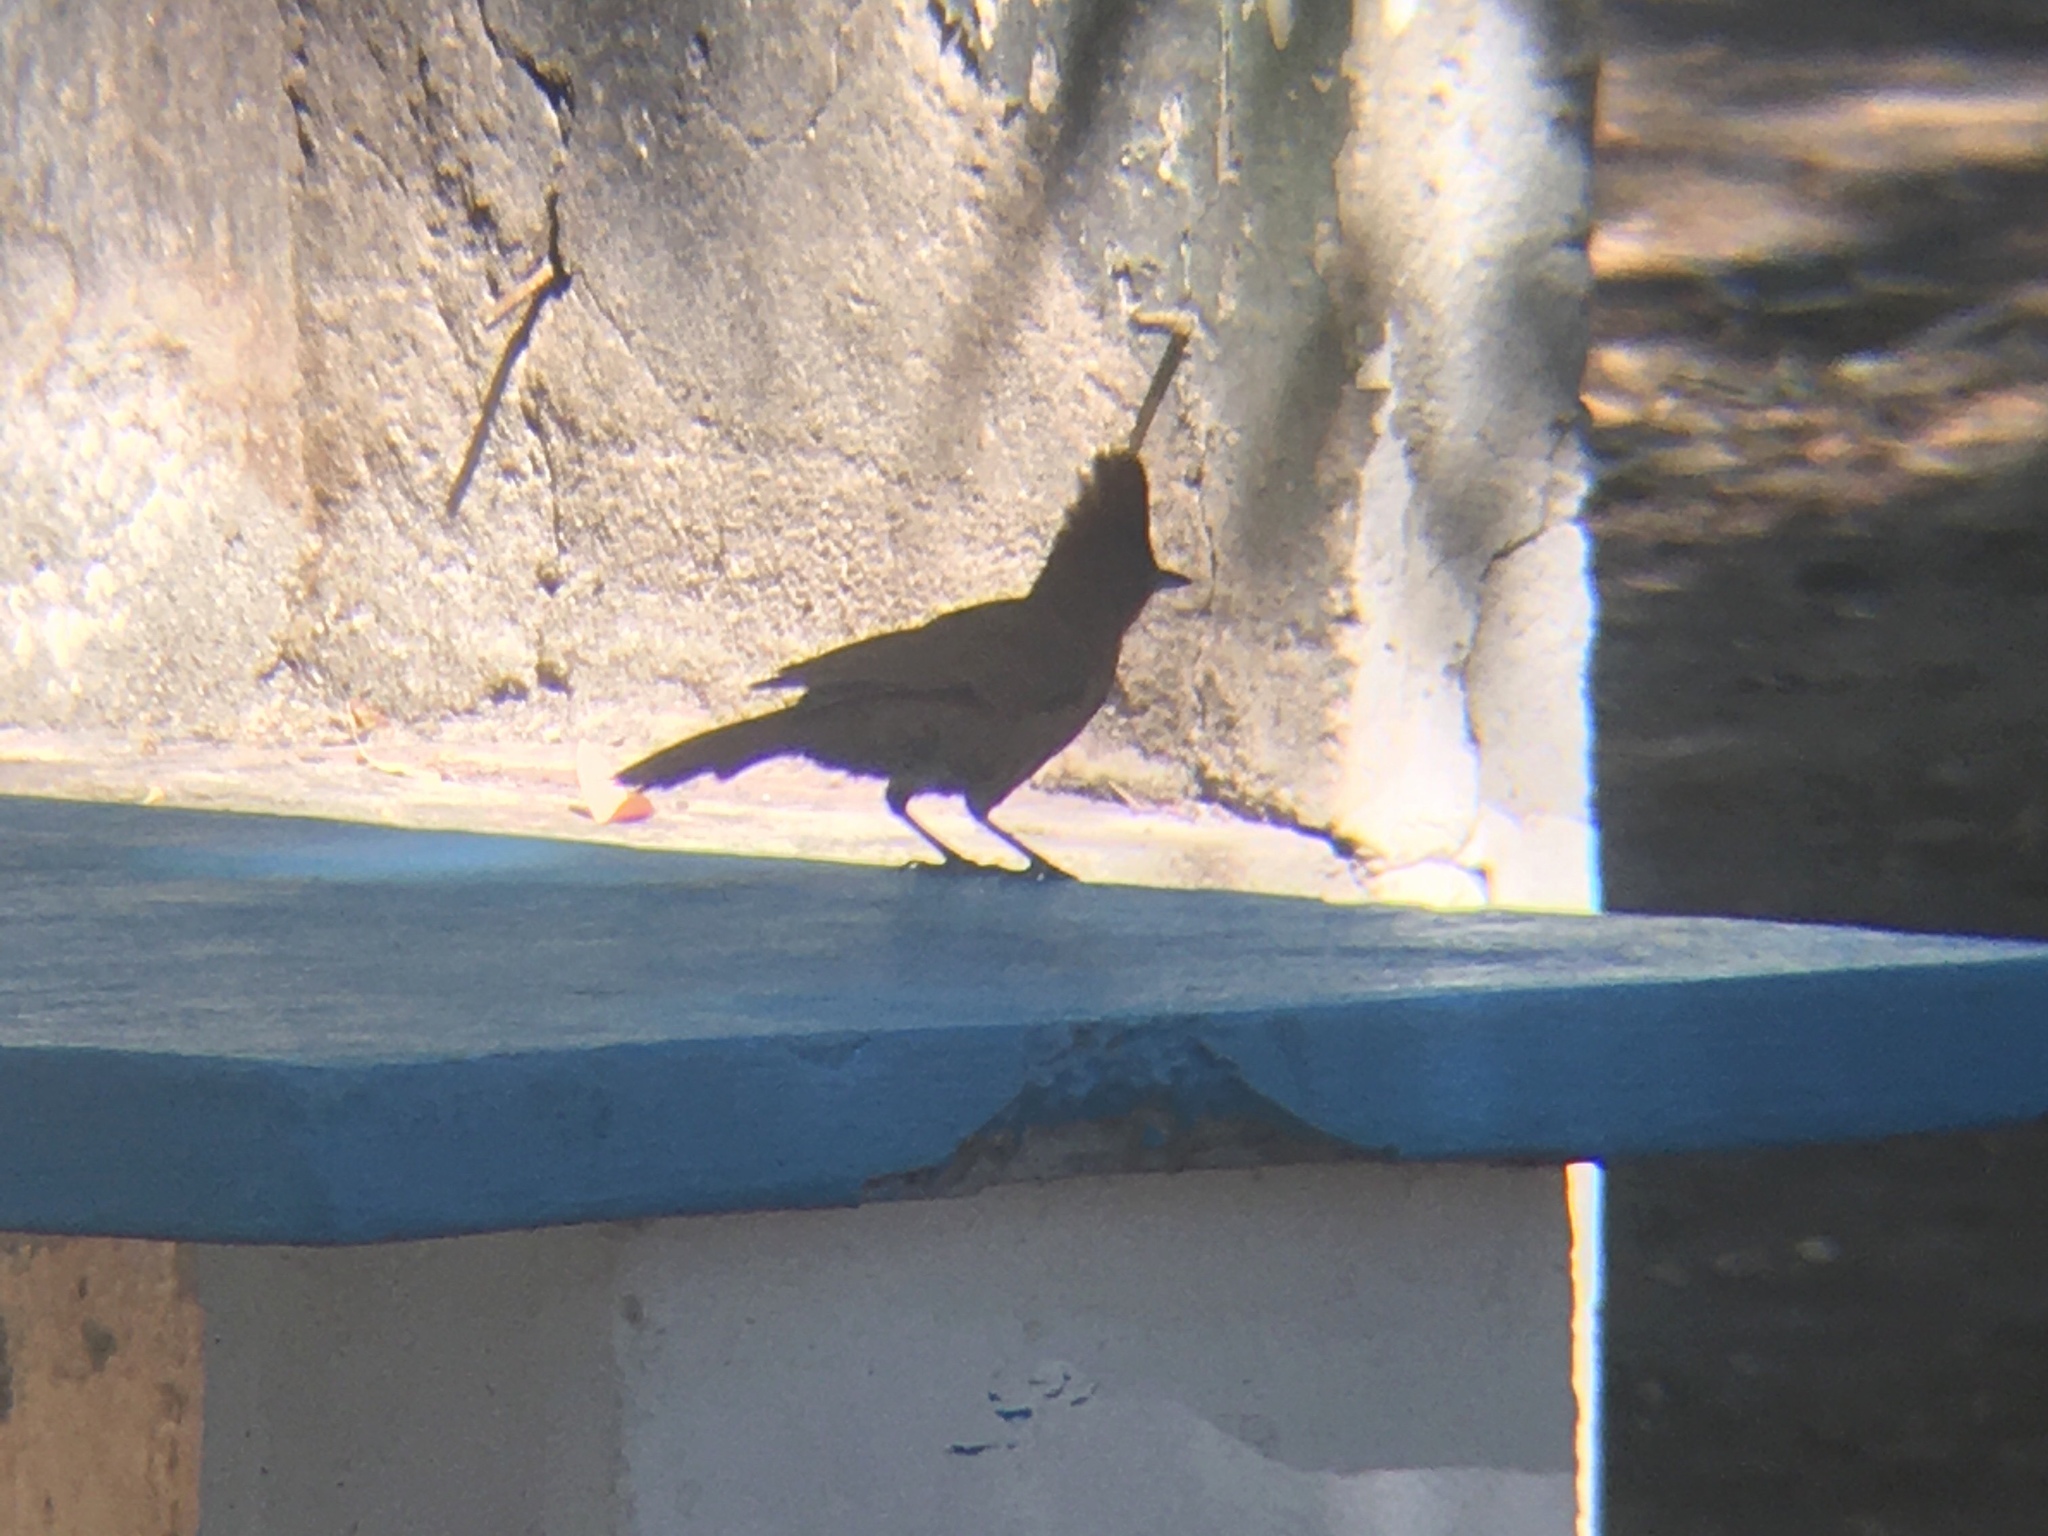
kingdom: Animalia
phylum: Chordata
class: Aves
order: Passeriformes
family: Furnariidae
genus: Pseudoseisura
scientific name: Pseudoseisura lophotes
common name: Brown cacholote
